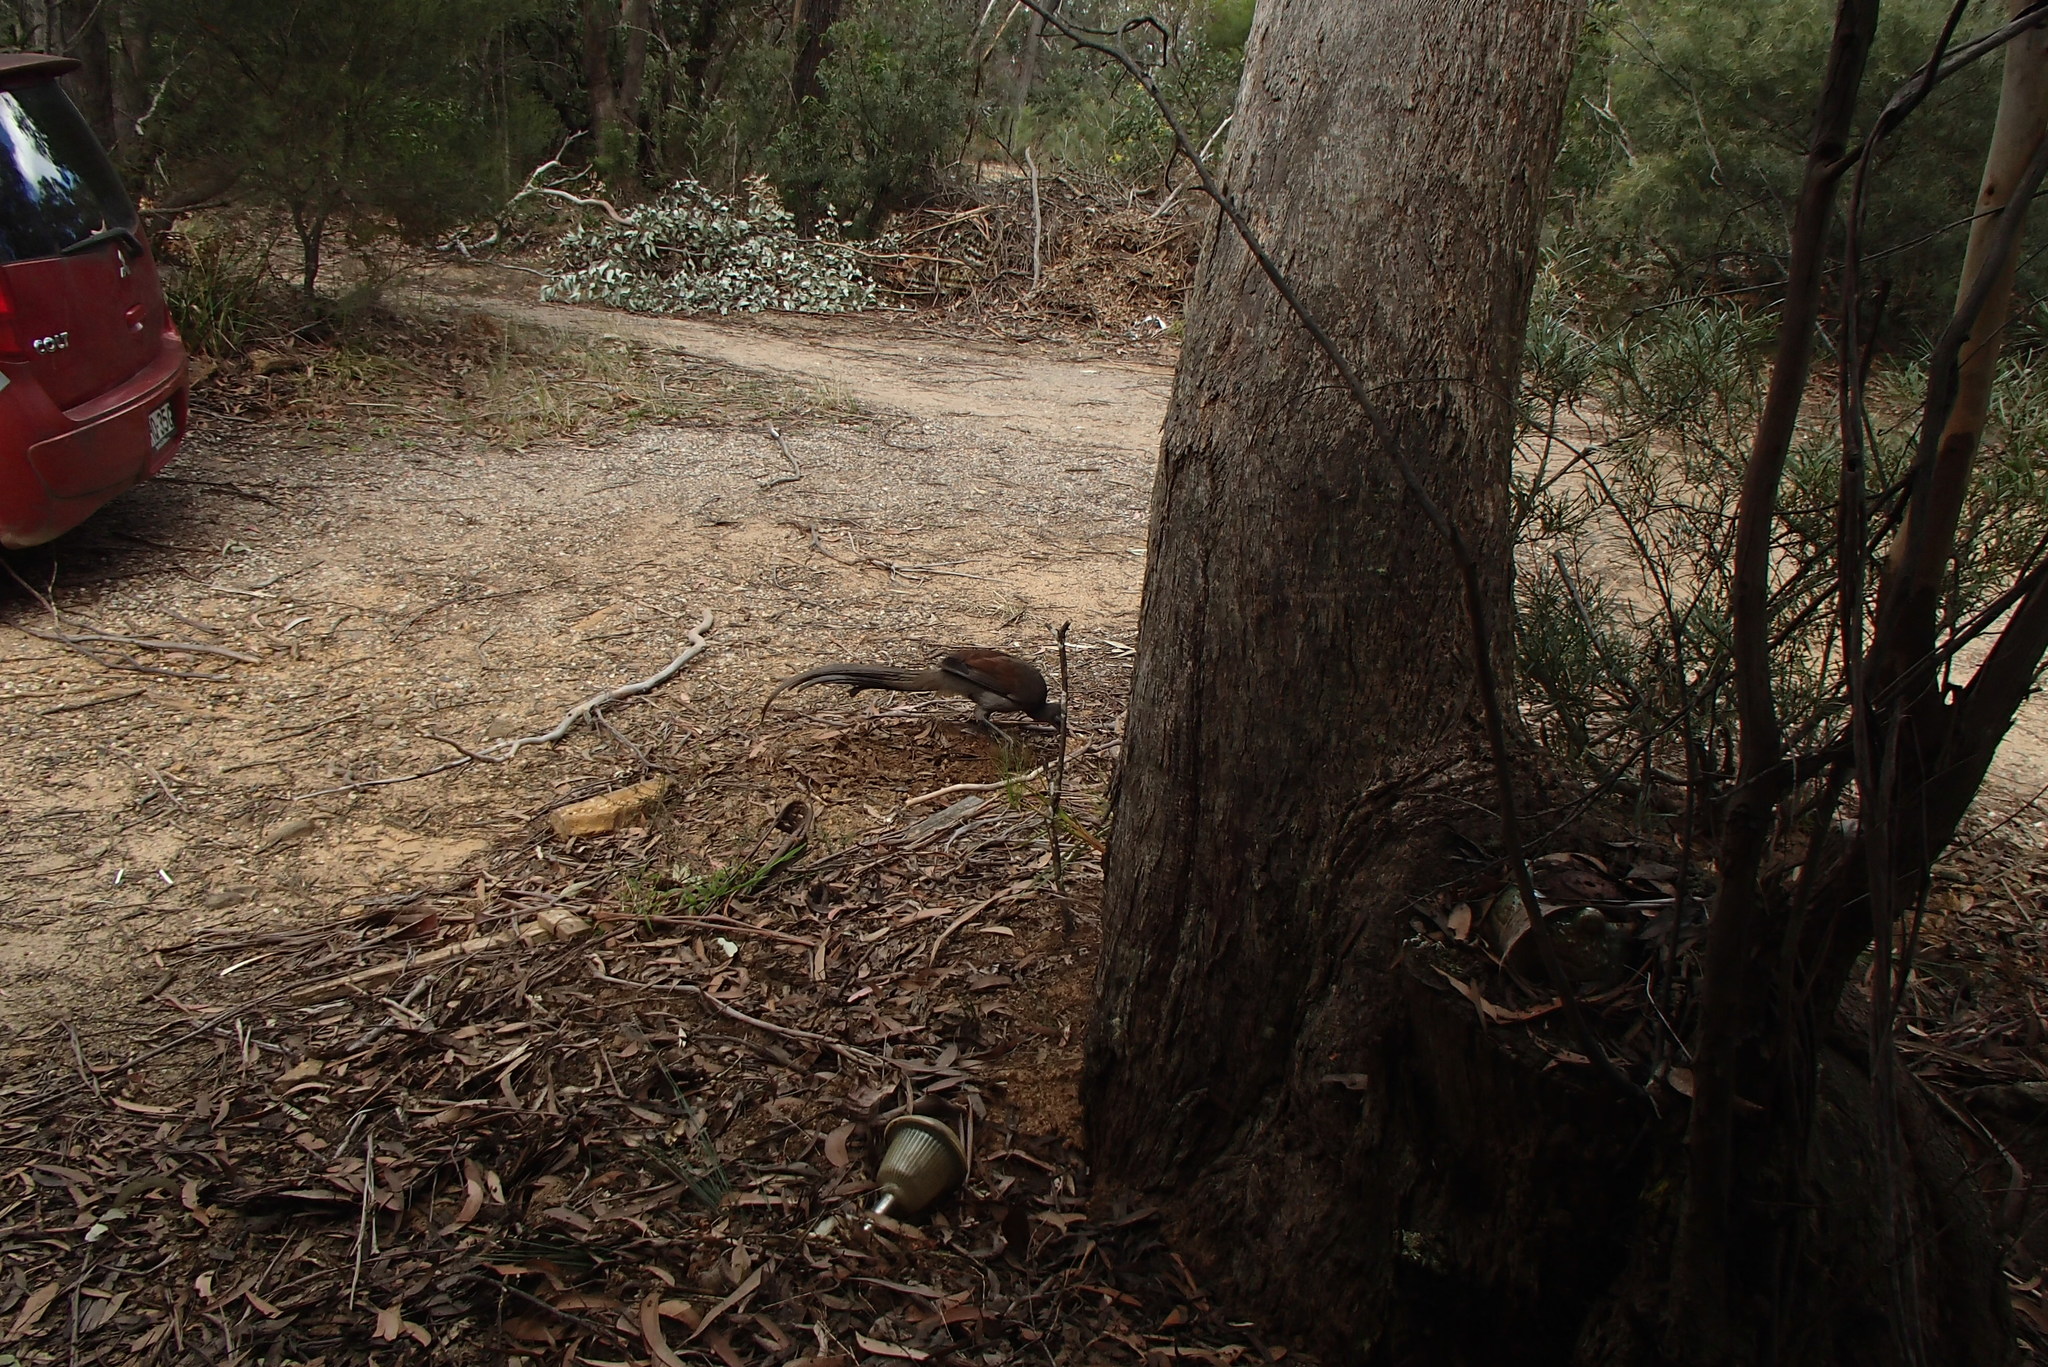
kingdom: Animalia
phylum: Chordata
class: Aves
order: Passeriformes
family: Menuridae
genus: Menura
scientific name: Menura novaehollandiae
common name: Superb lyrebird
